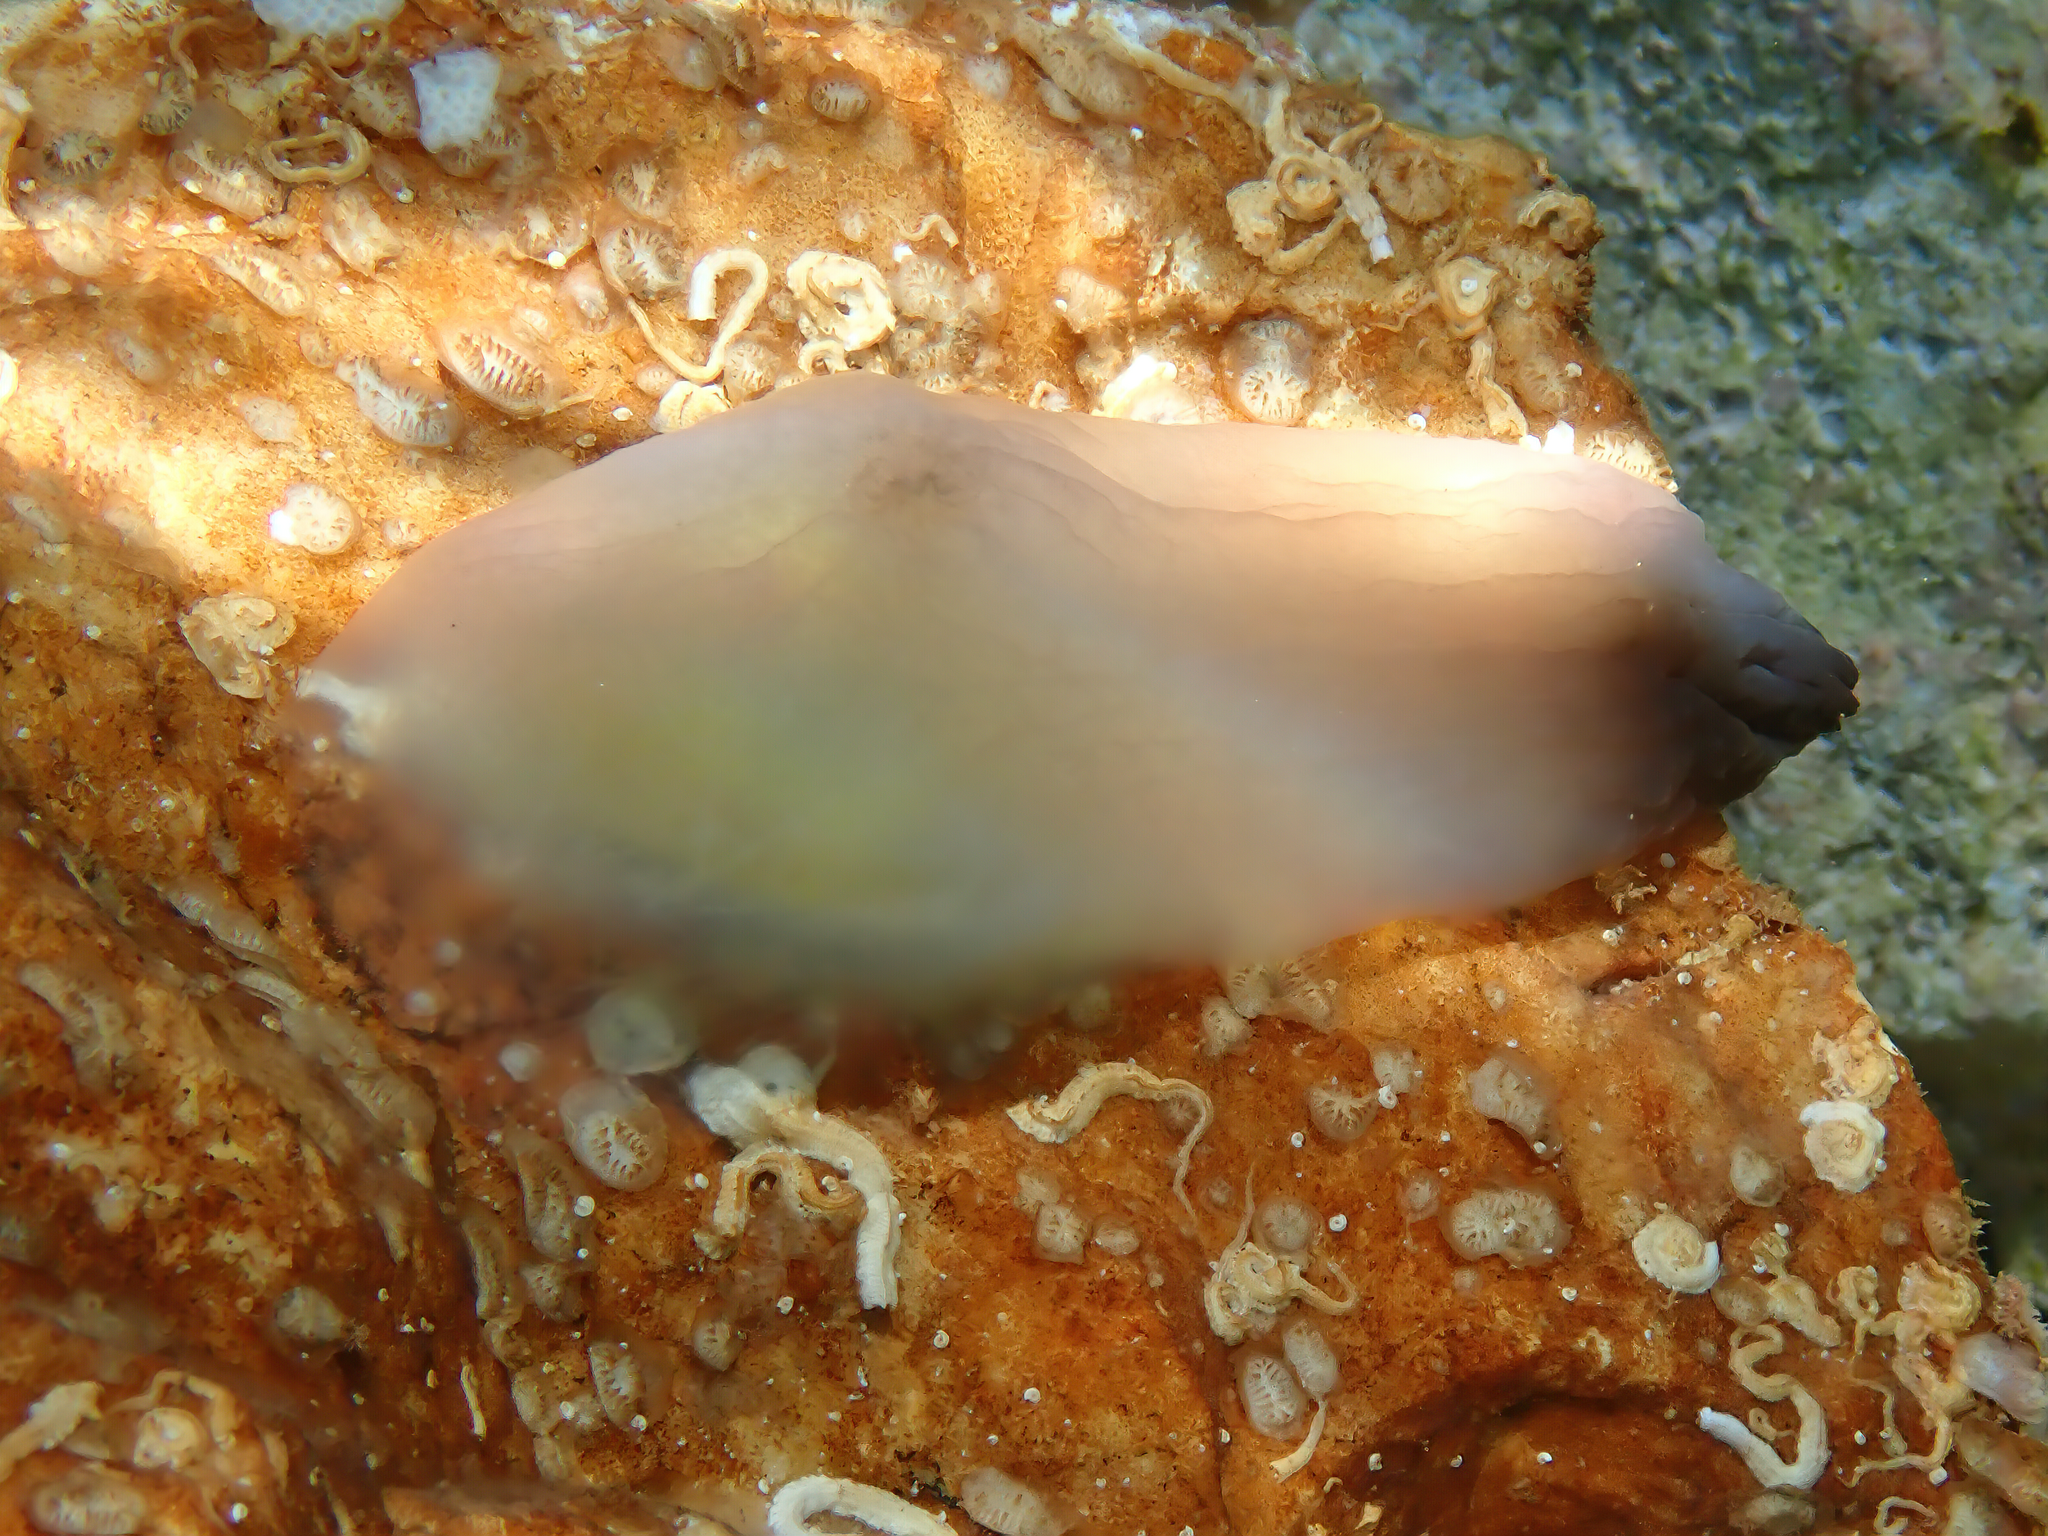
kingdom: Animalia
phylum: Chordata
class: Ascidiacea
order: Phlebobranchia
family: Ascidiidae
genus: Phallusia
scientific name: Phallusia fumigata
